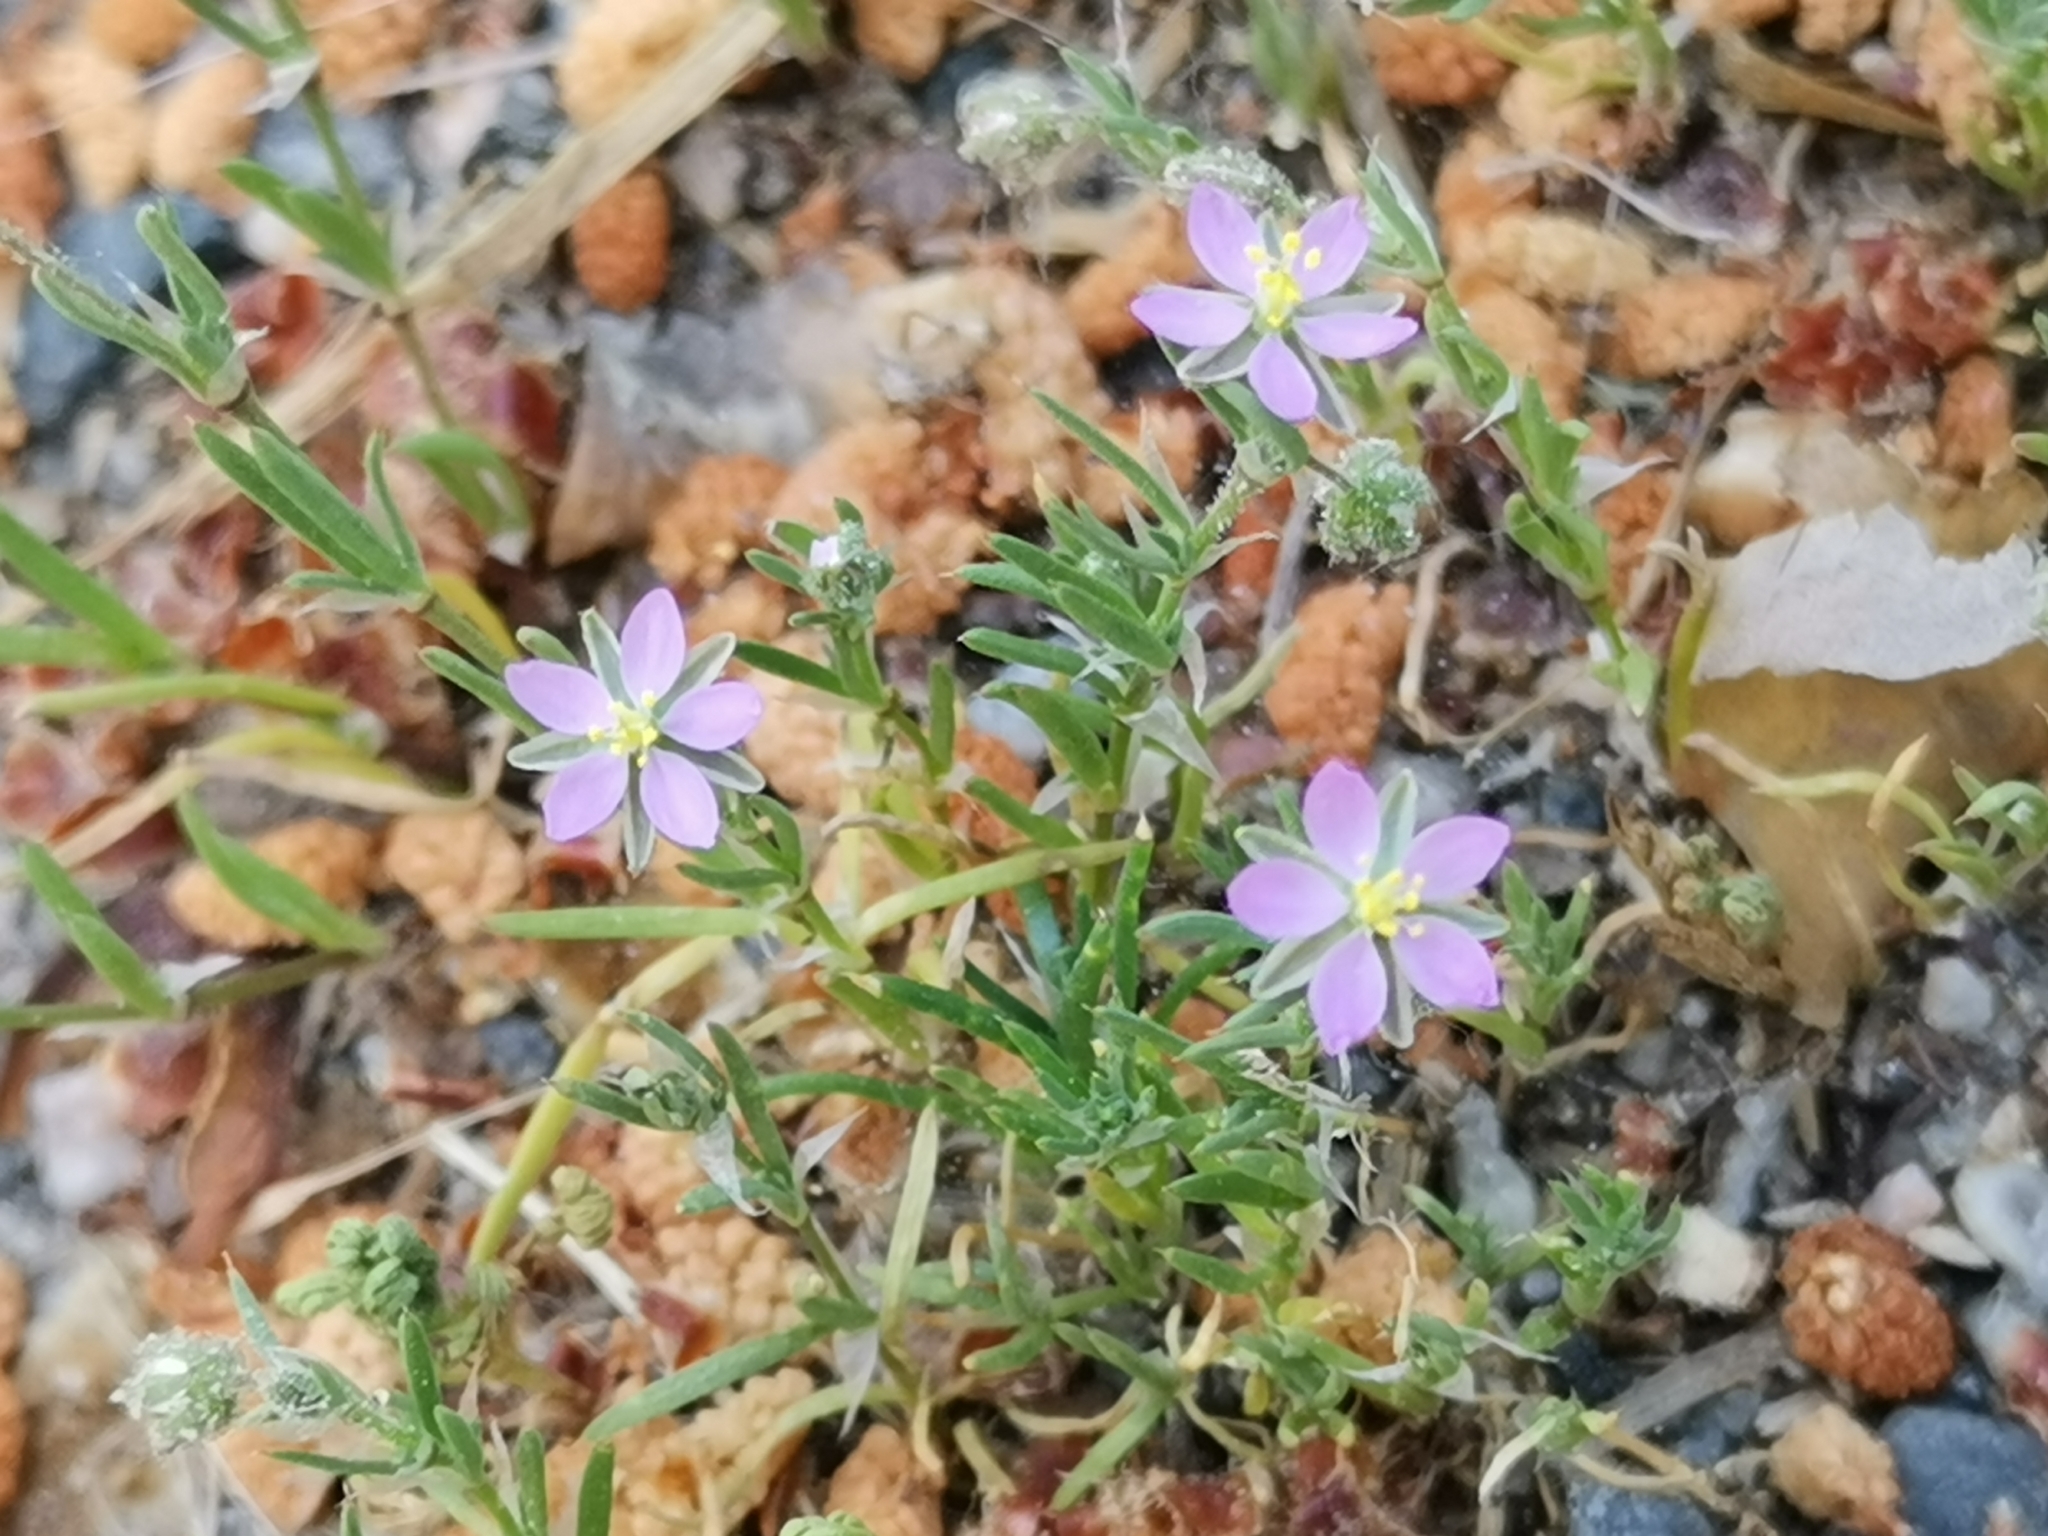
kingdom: Plantae
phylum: Tracheophyta
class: Magnoliopsida
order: Caryophyllales
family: Caryophyllaceae
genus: Spergularia
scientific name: Spergularia rubra
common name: Red sand-spurrey
